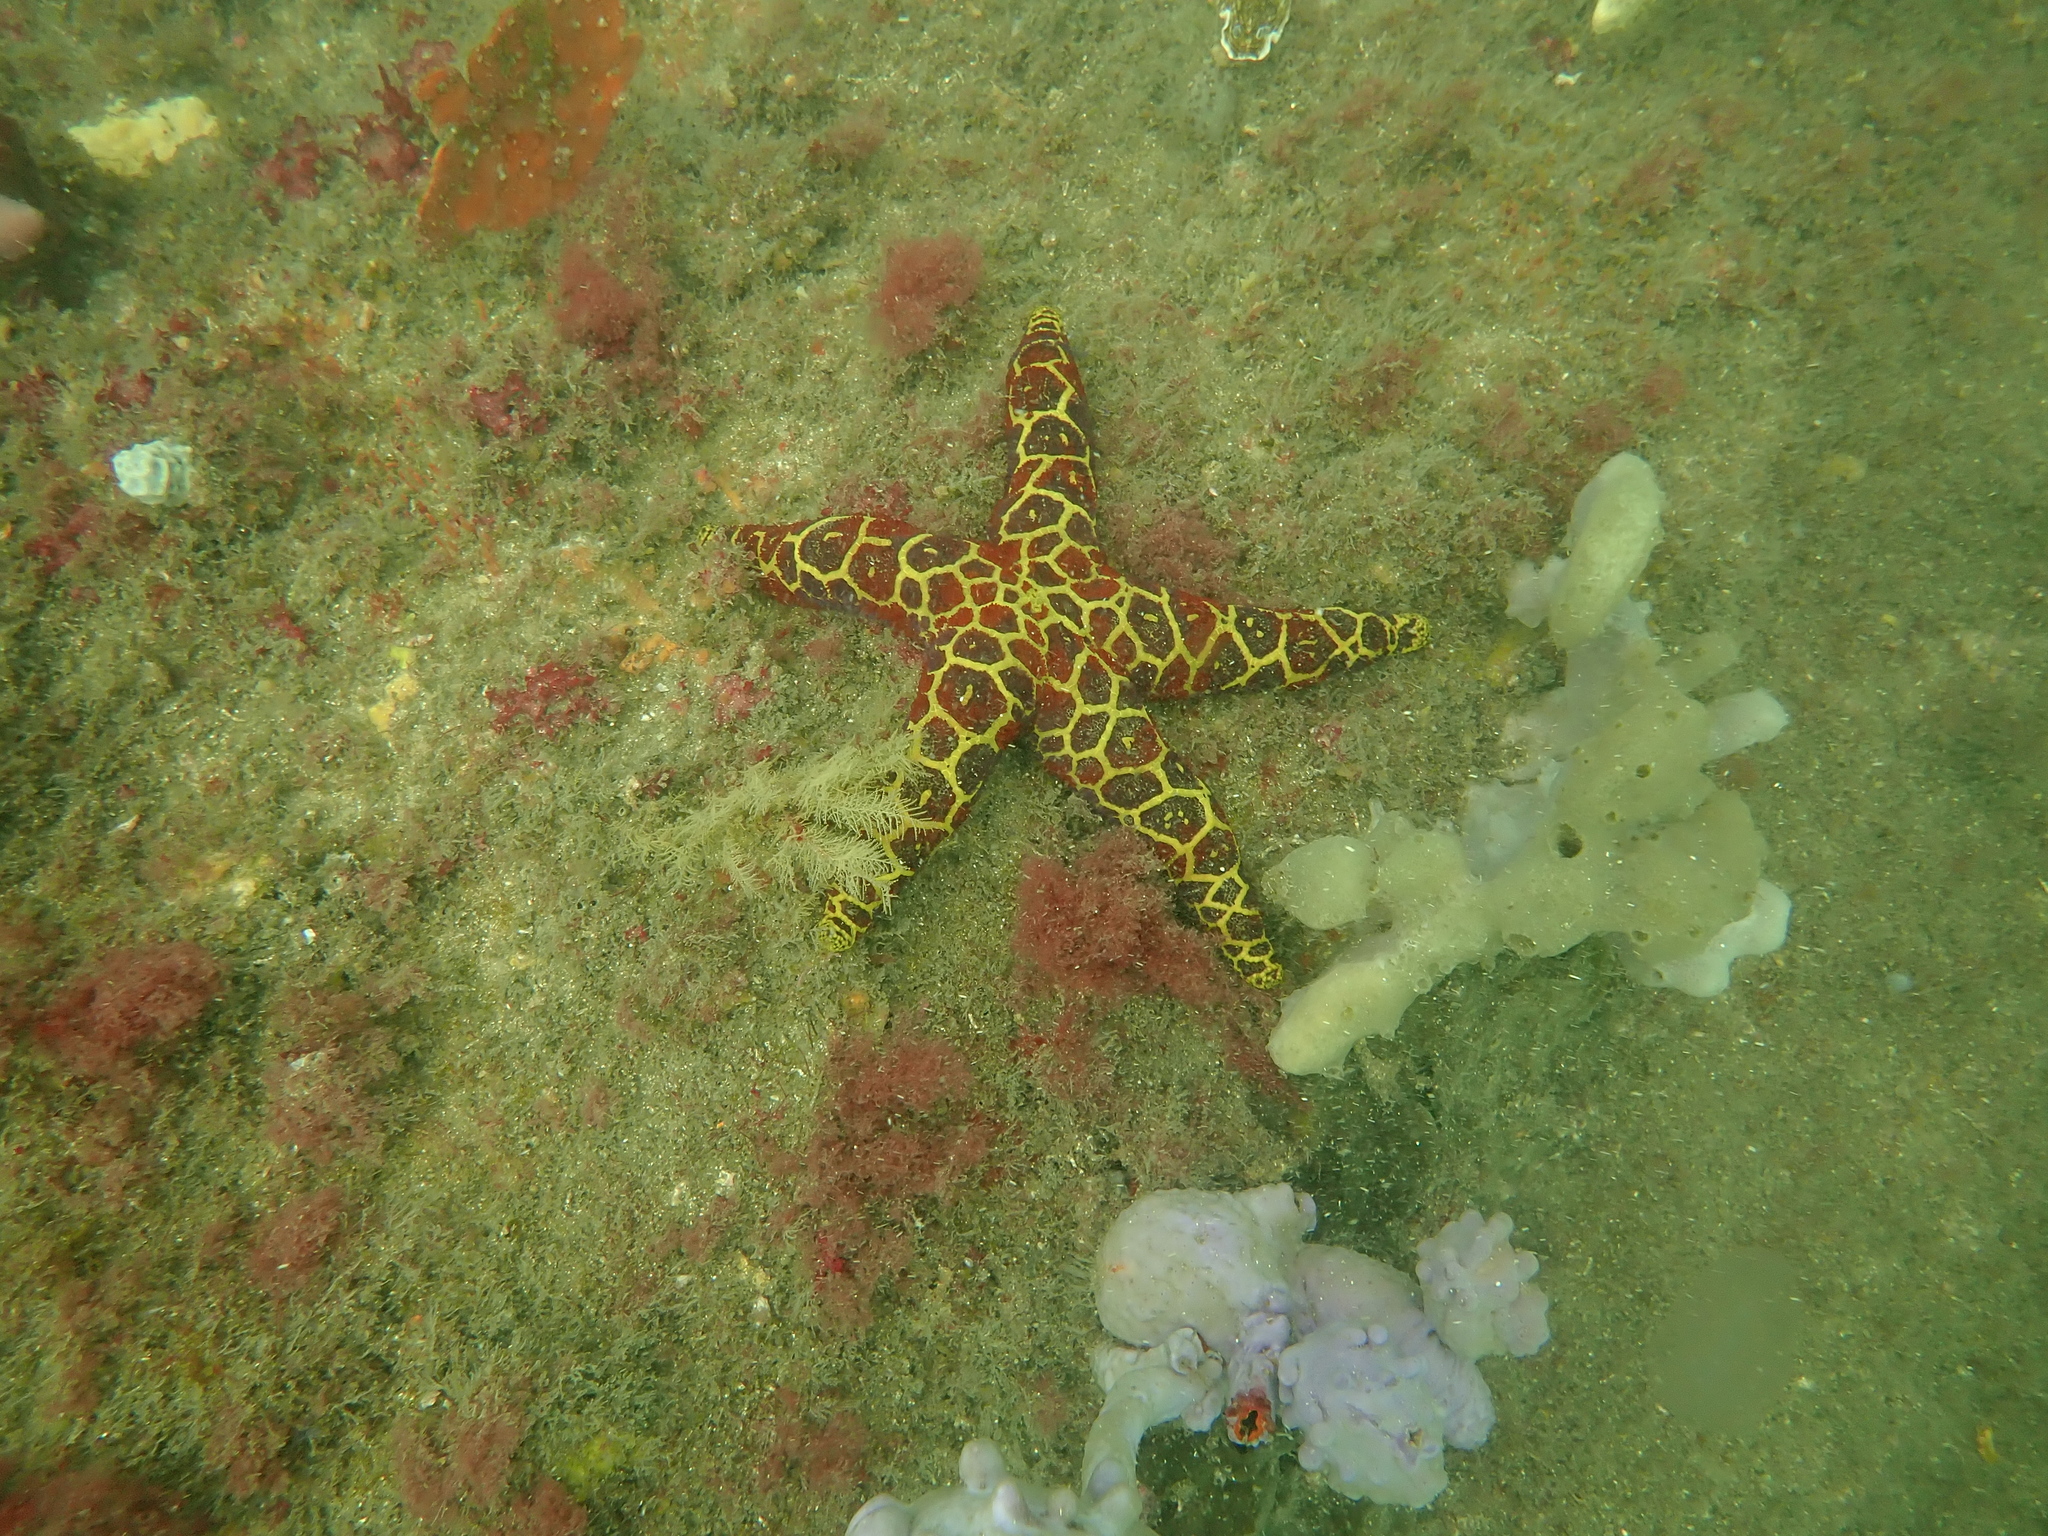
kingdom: Animalia
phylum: Echinodermata
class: Asteroidea
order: Spinulosida
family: Echinasteridae
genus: Plectaster
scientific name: Plectaster decanus
